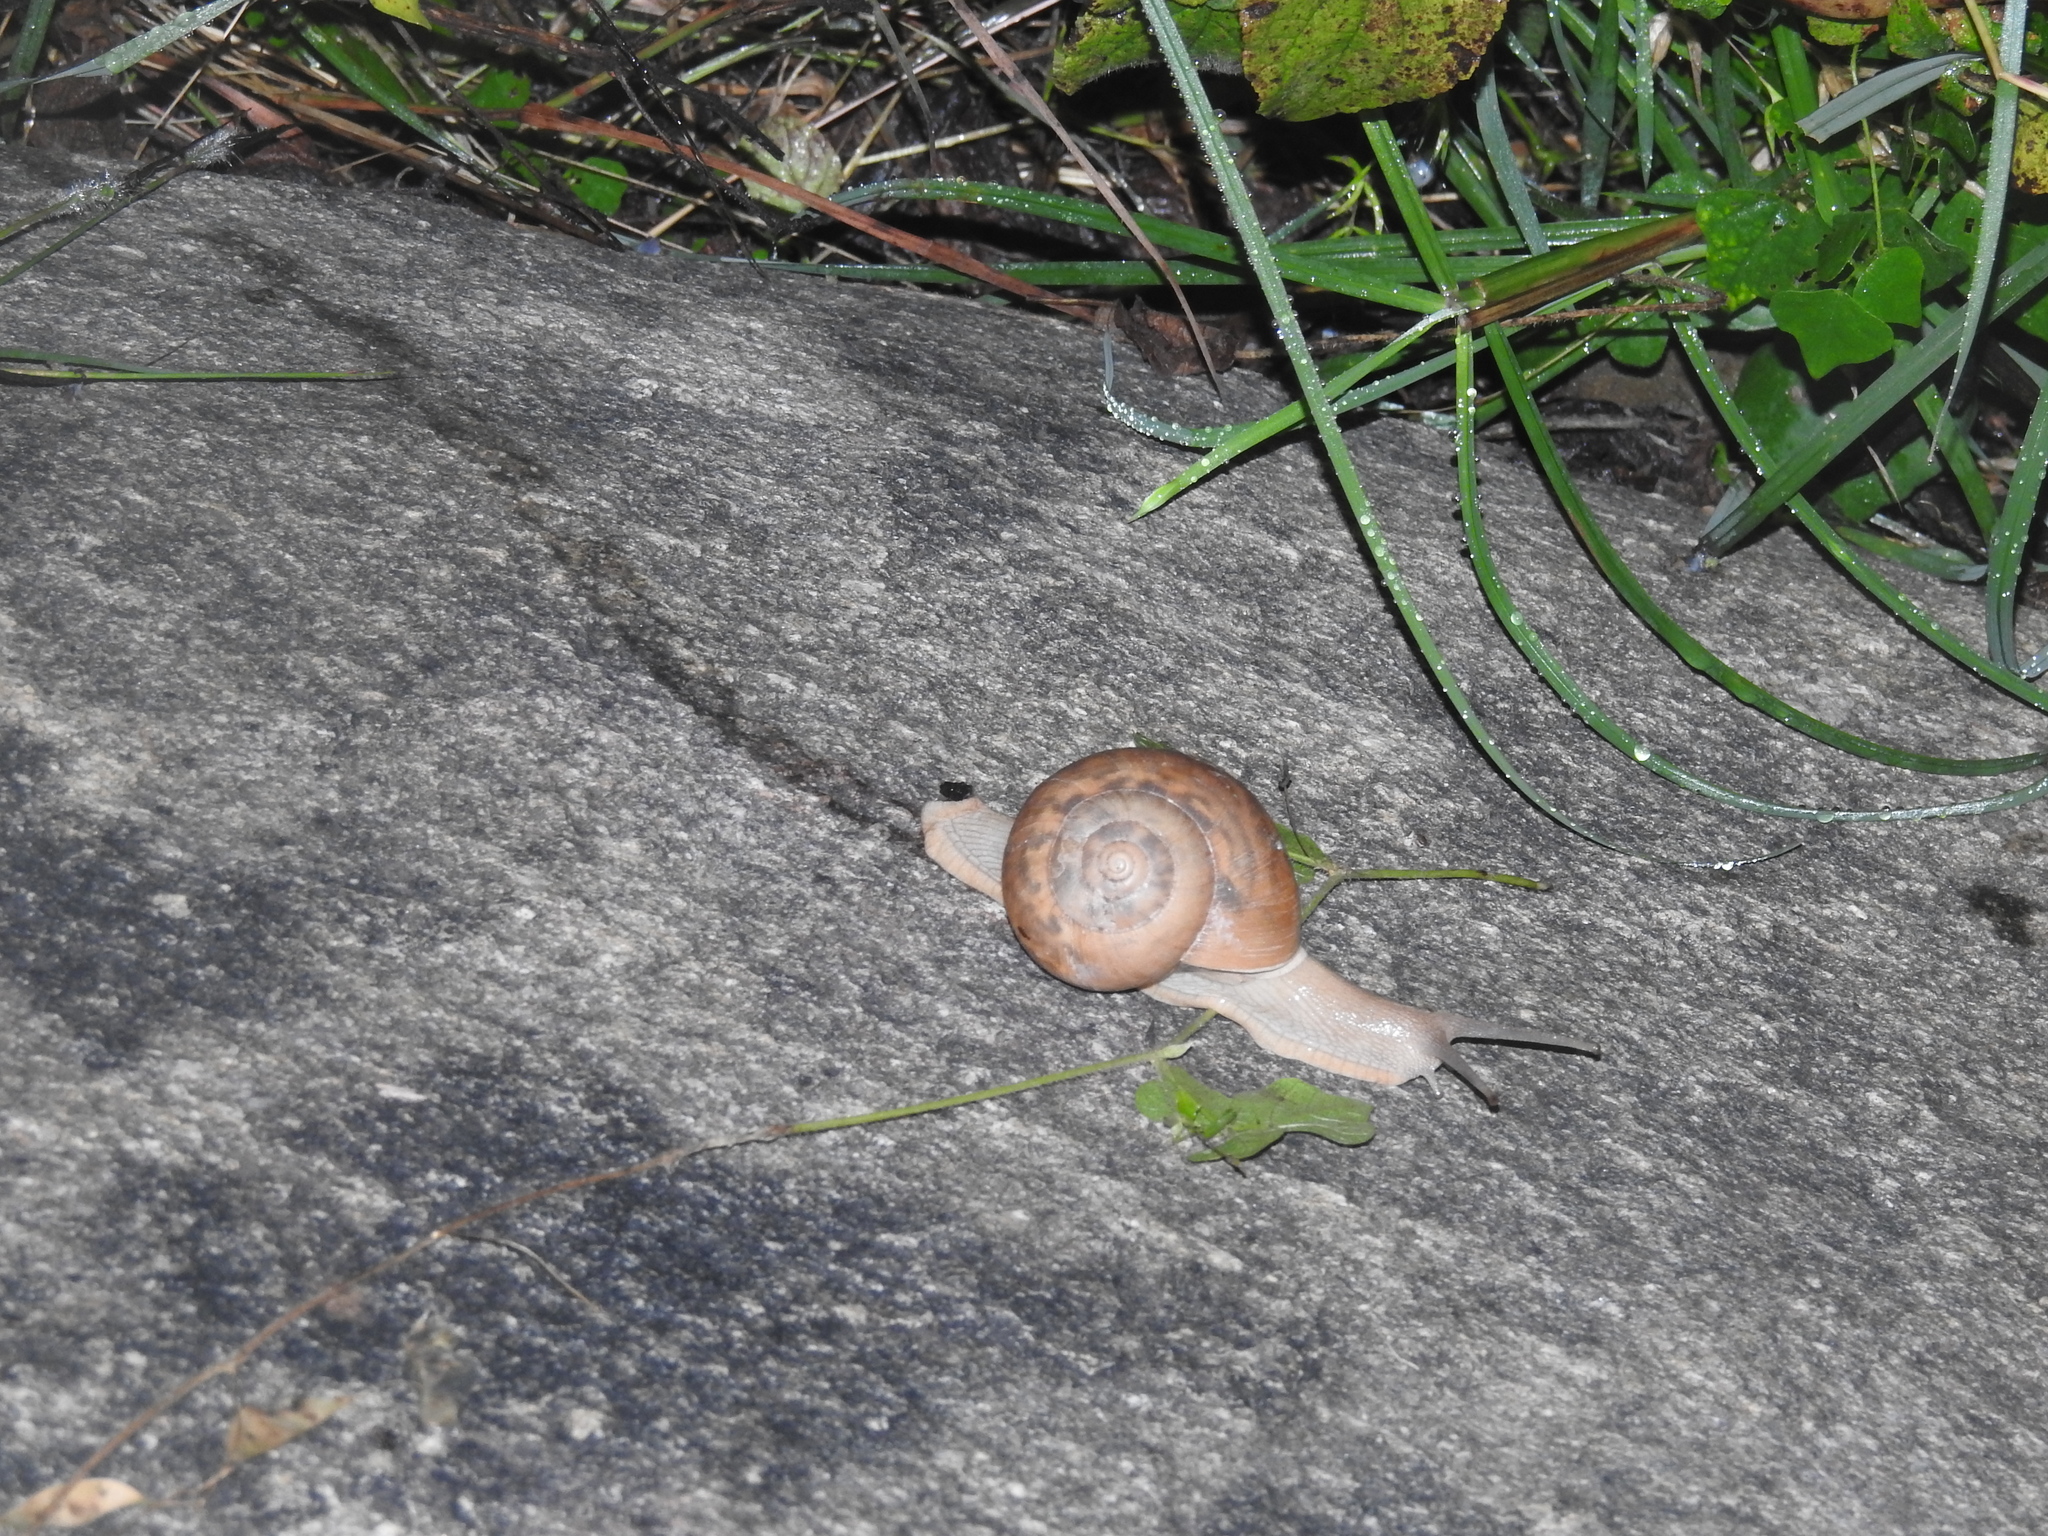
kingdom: Animalia
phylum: Mollusca
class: Gastropoda
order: Stylommatophora
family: Ariophantidae
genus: Ariophanta
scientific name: Ariophanta maderaspatana
